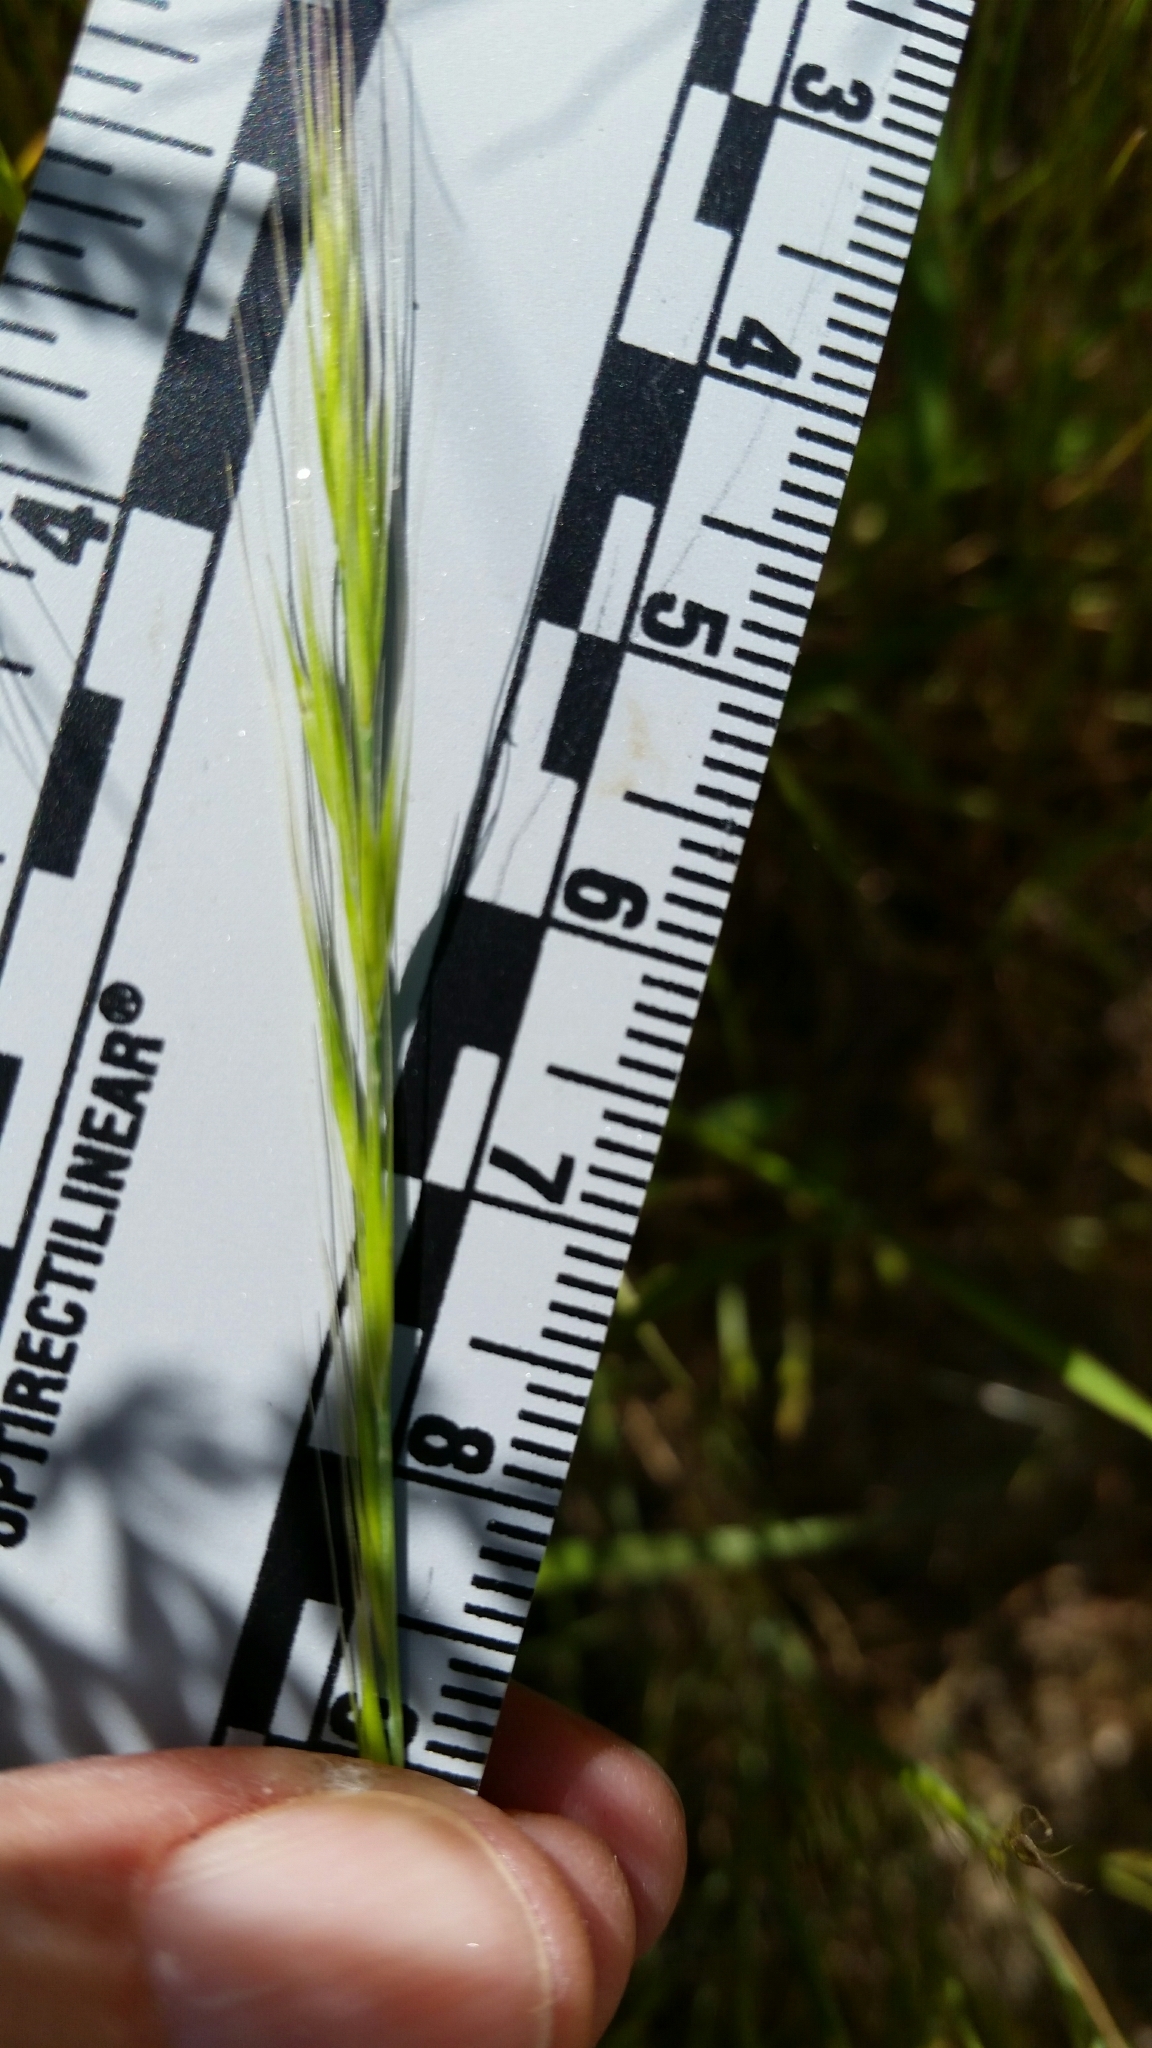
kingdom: Plantae
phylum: Tracheophyta
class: Liliopsida
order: Poales
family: Poaceae
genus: Festuca
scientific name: Festuca myuros
